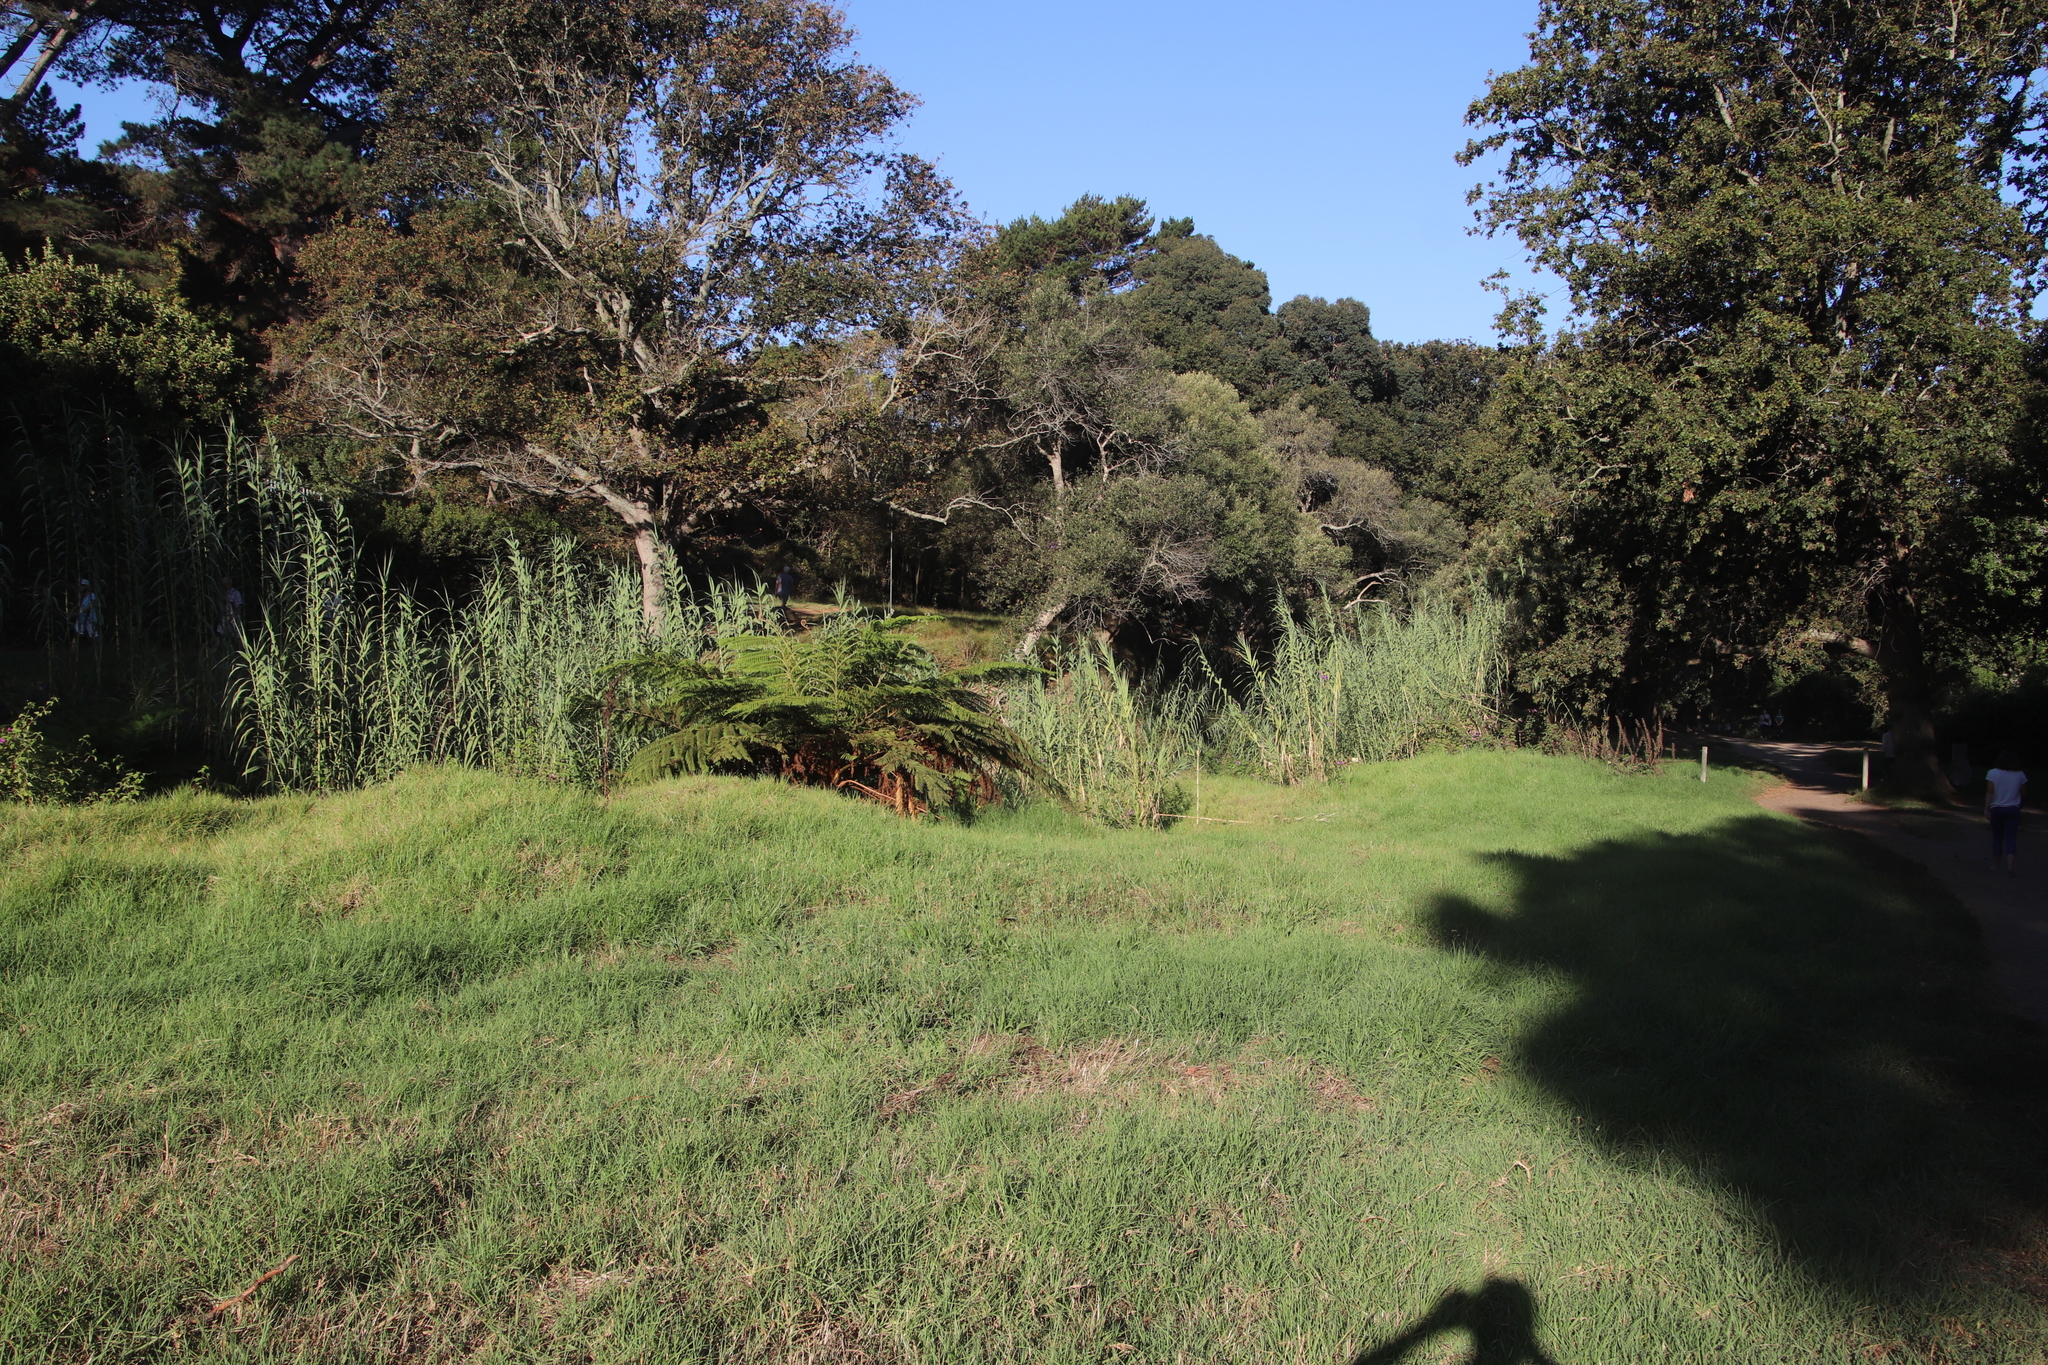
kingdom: Plantae
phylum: Tracheophyta
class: Polypodiopsida
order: Cyatheales
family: Cyatheaceae
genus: Sphaeropteris
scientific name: Sphaeropteris cooperi
